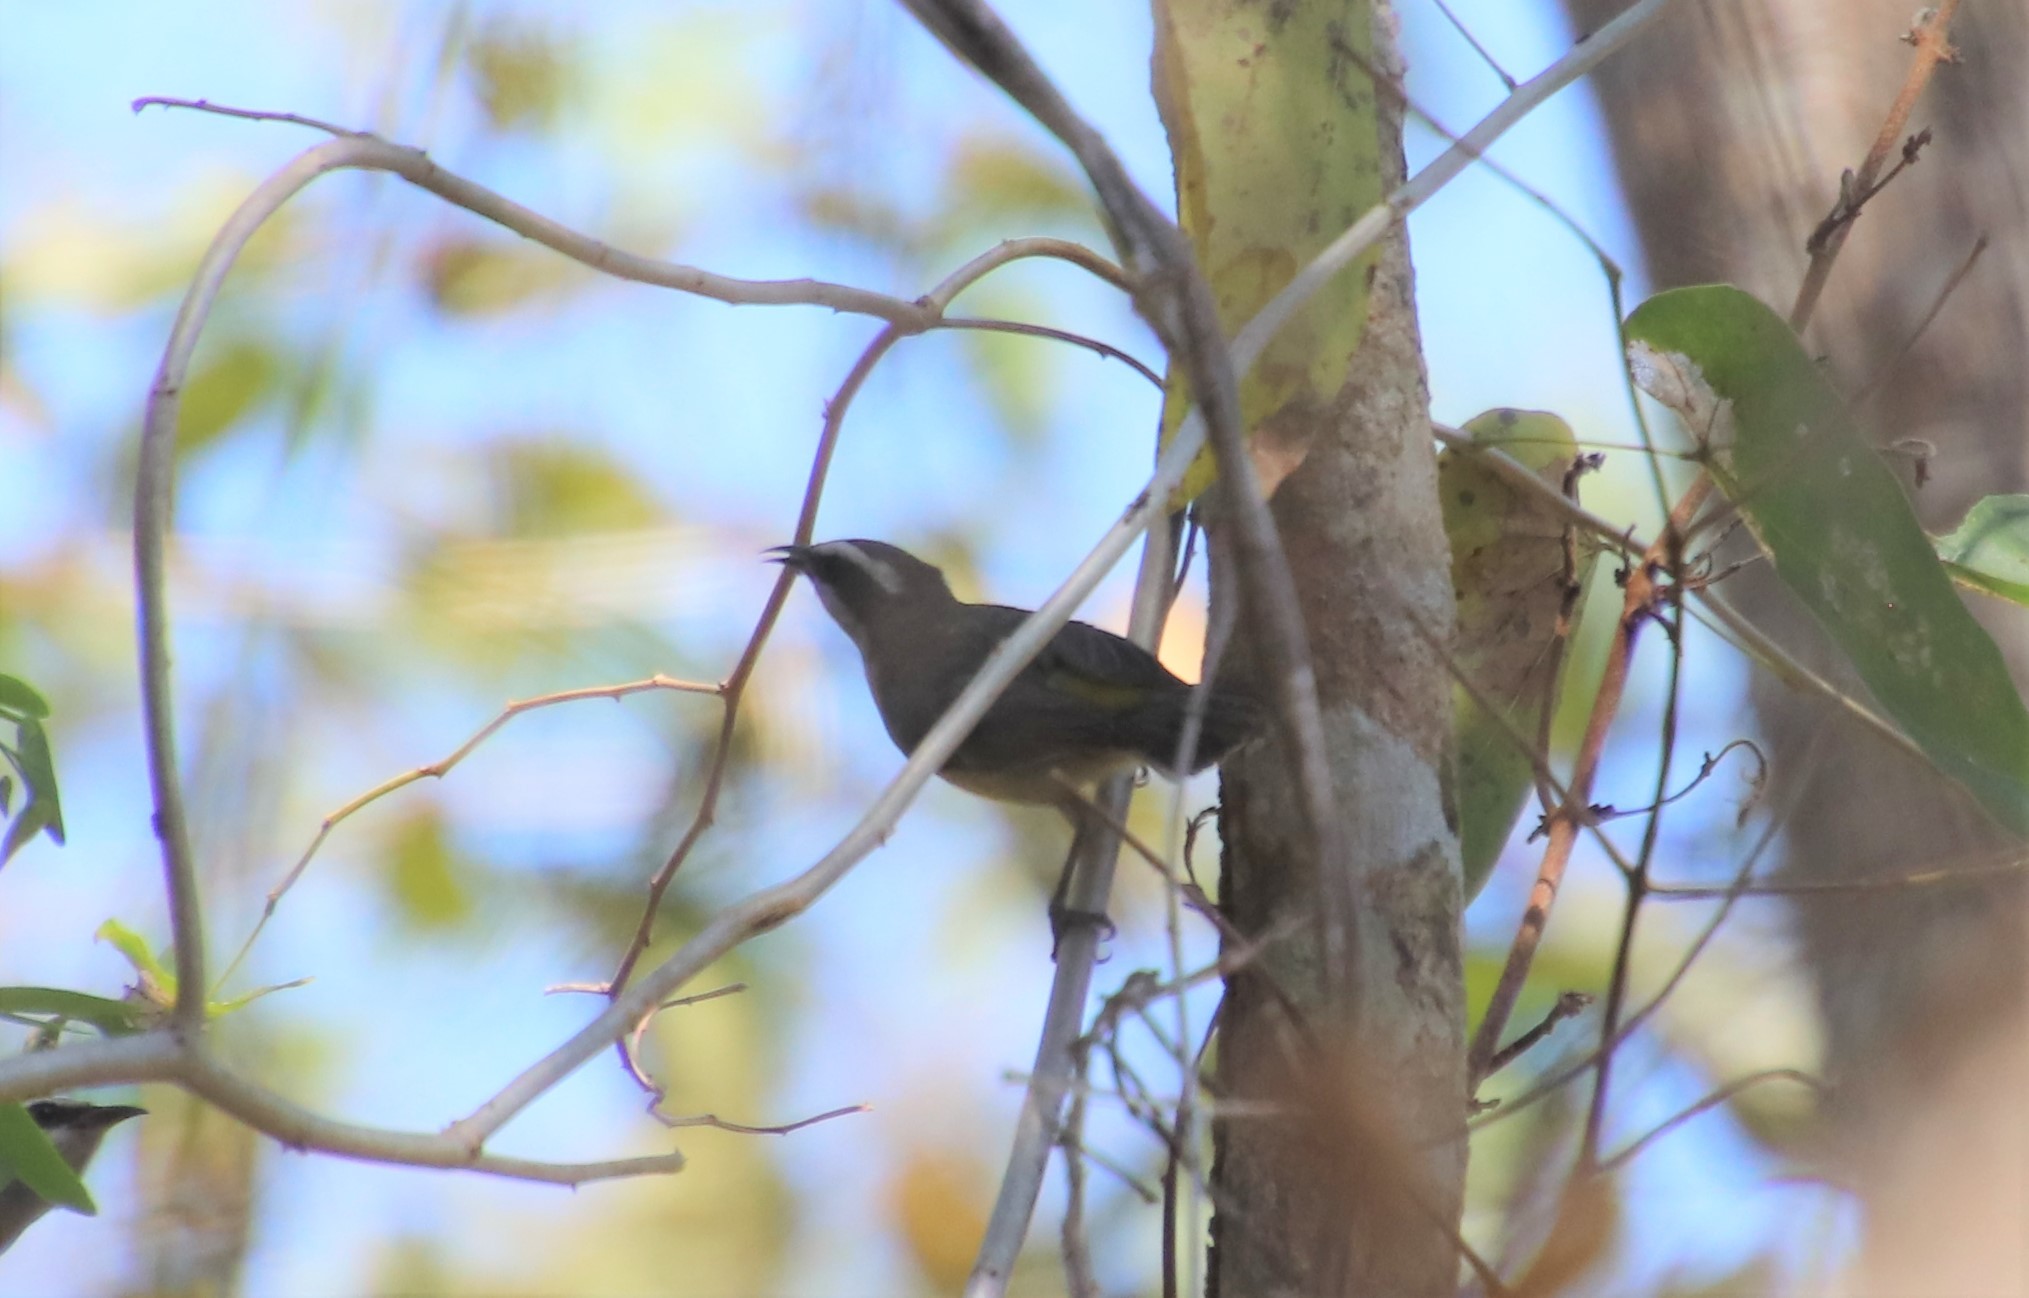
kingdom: Animalia
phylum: Chordata
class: Aves
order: Passeriformes
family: Thraupidae
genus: Coereba
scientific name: Coereba flaveola
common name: Bananaquit
